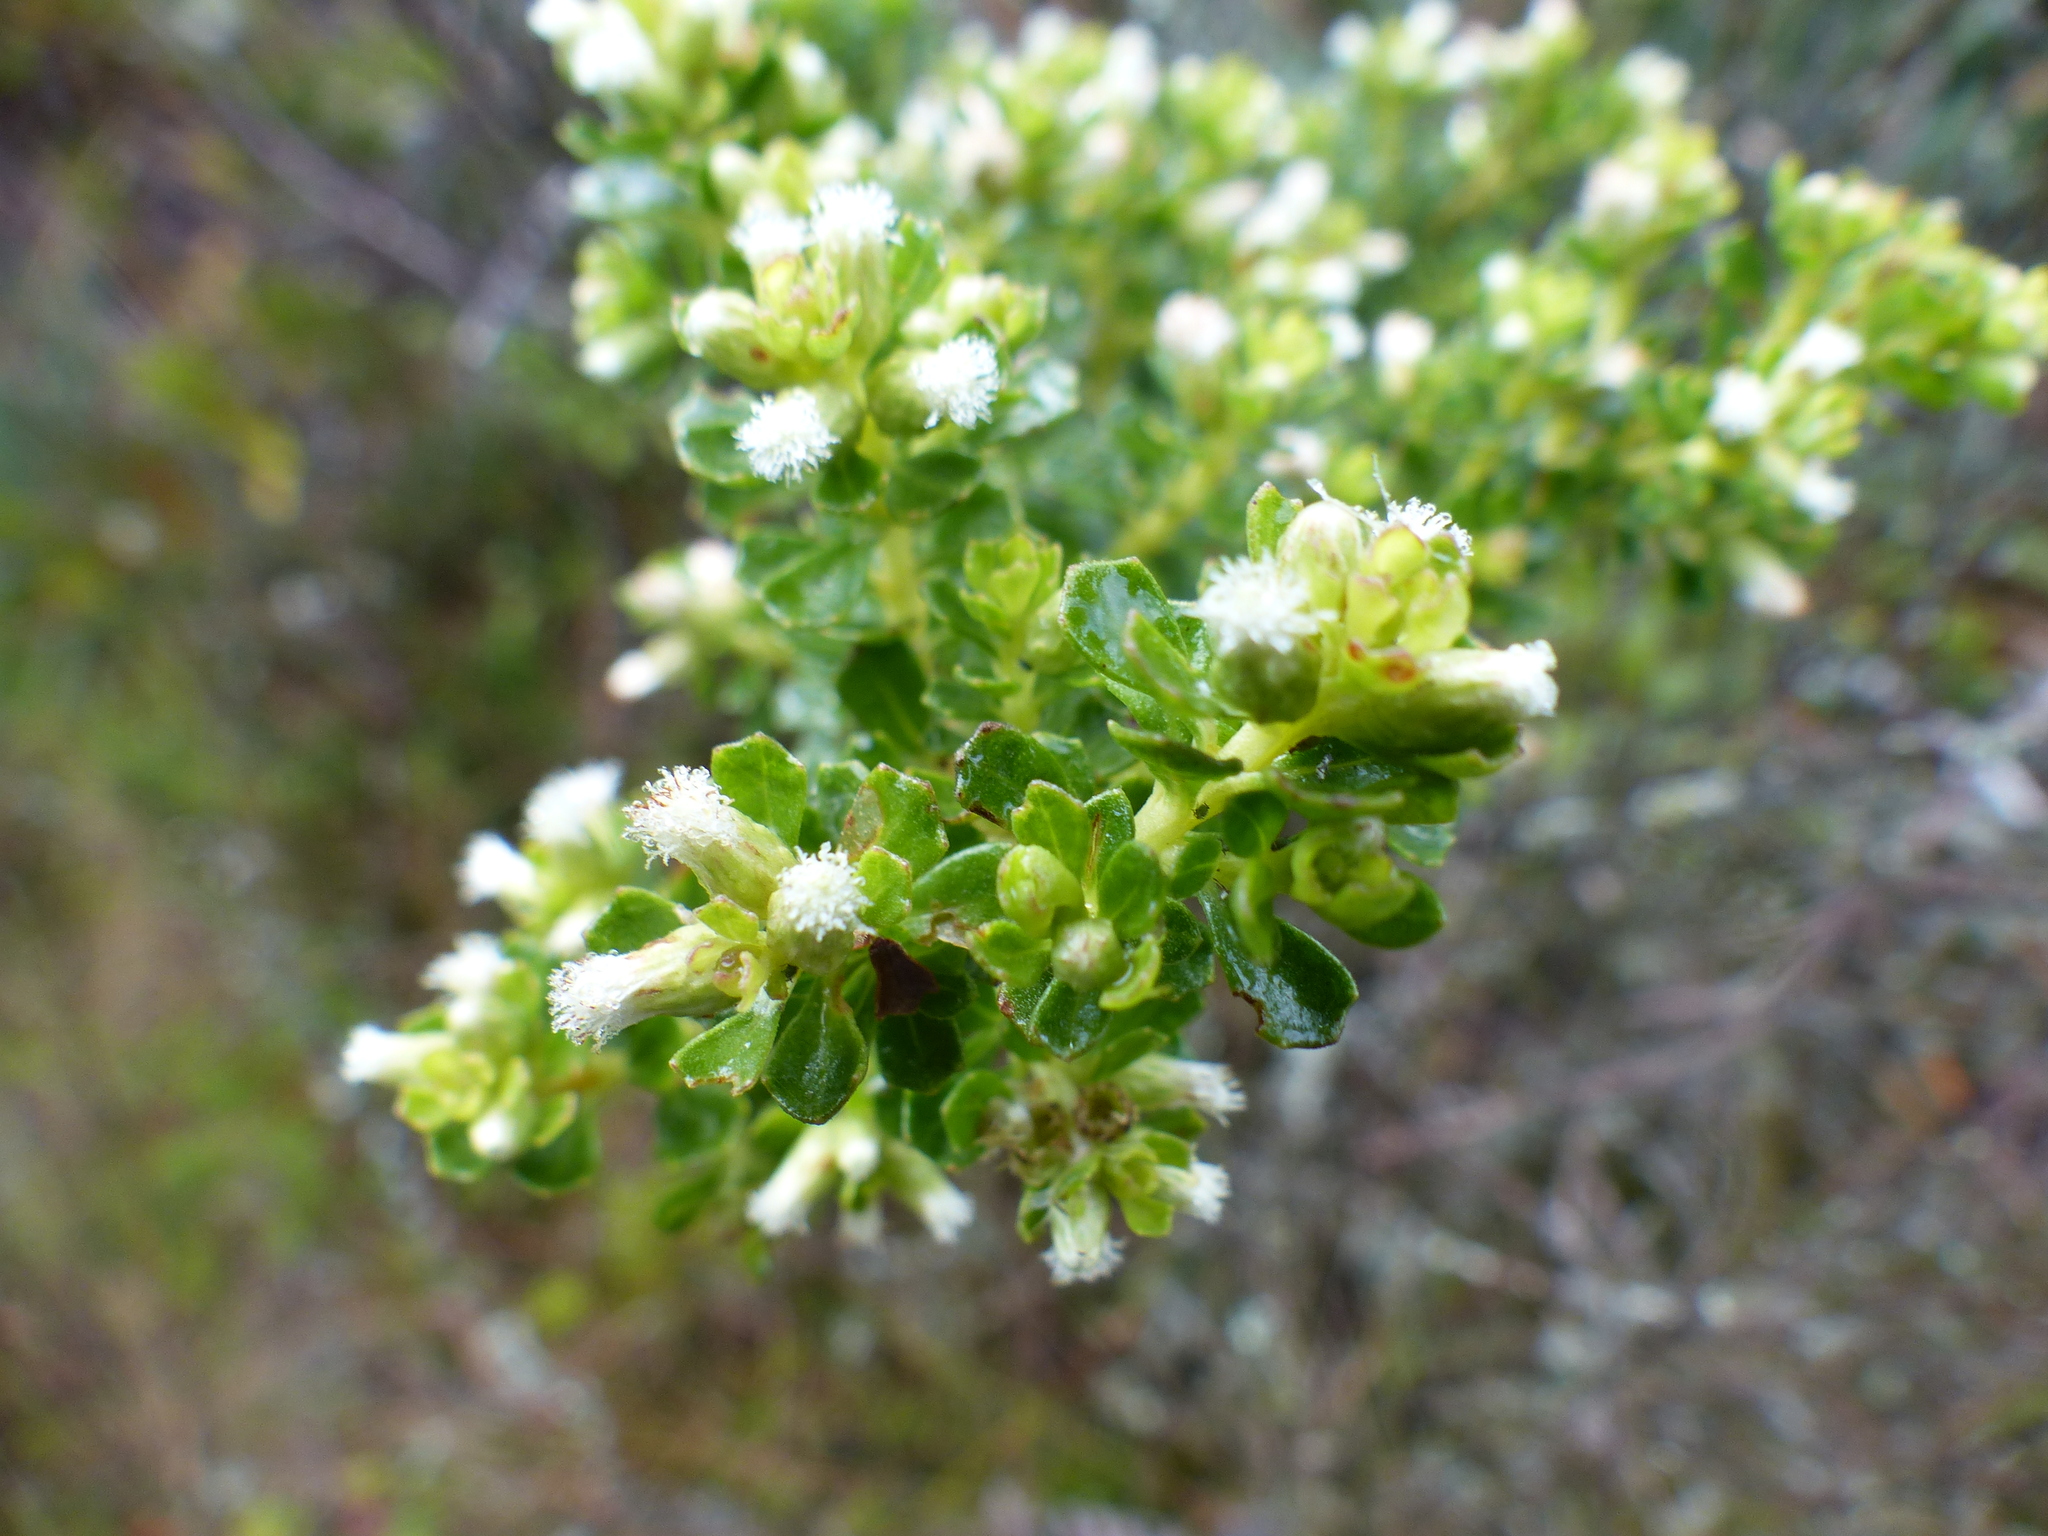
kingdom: Plantae
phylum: Tracheophyta
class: Magnoliopsida
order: Asterales
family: Asteraceae
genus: Baccharis
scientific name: Baccharis tricuneata
